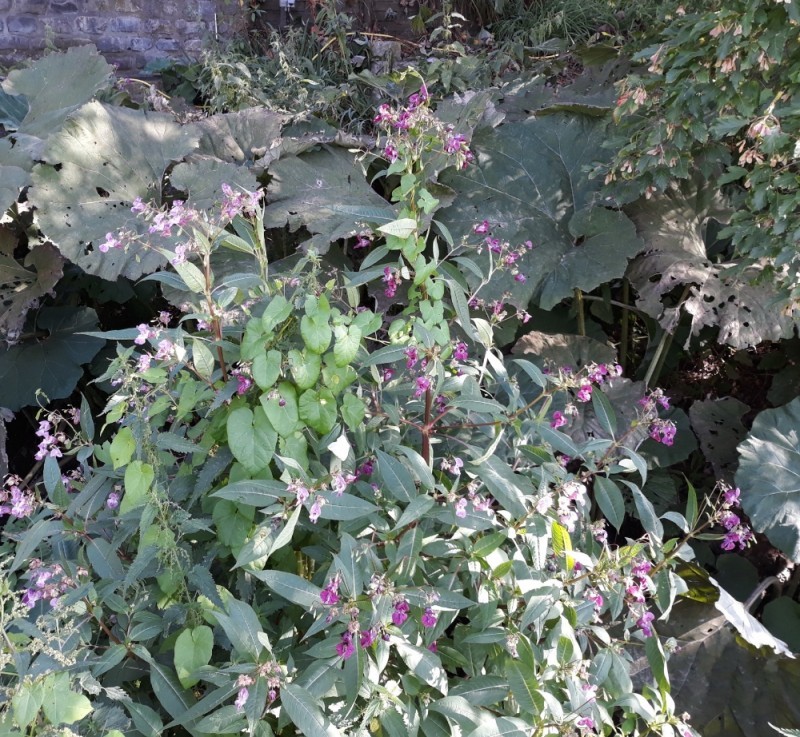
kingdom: Plantae
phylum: Tracheophyta
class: Magnoliopsida
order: Ericales
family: Balsaminaceae
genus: Impatiens
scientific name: Impatiens glandulifera
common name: Himalayan balsam
